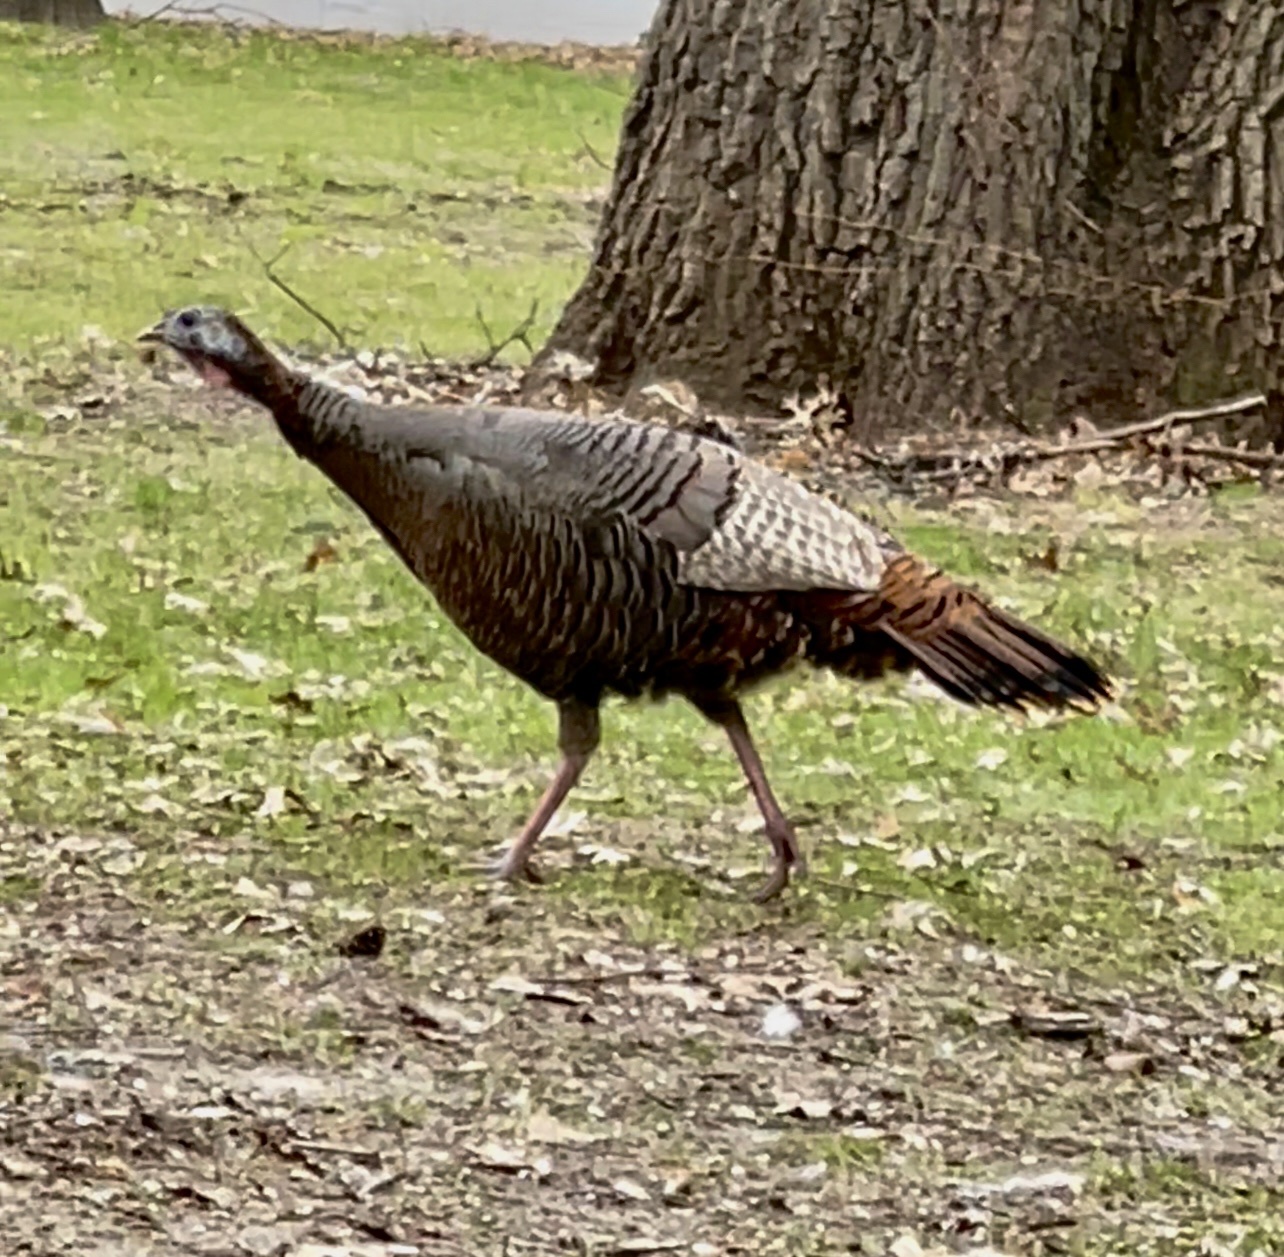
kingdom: Animalia
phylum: Chordata
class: Aves
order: Galliformes
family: Phasianidae
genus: Meleagris
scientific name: Meleagris gallopavo
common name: Wild turkey
